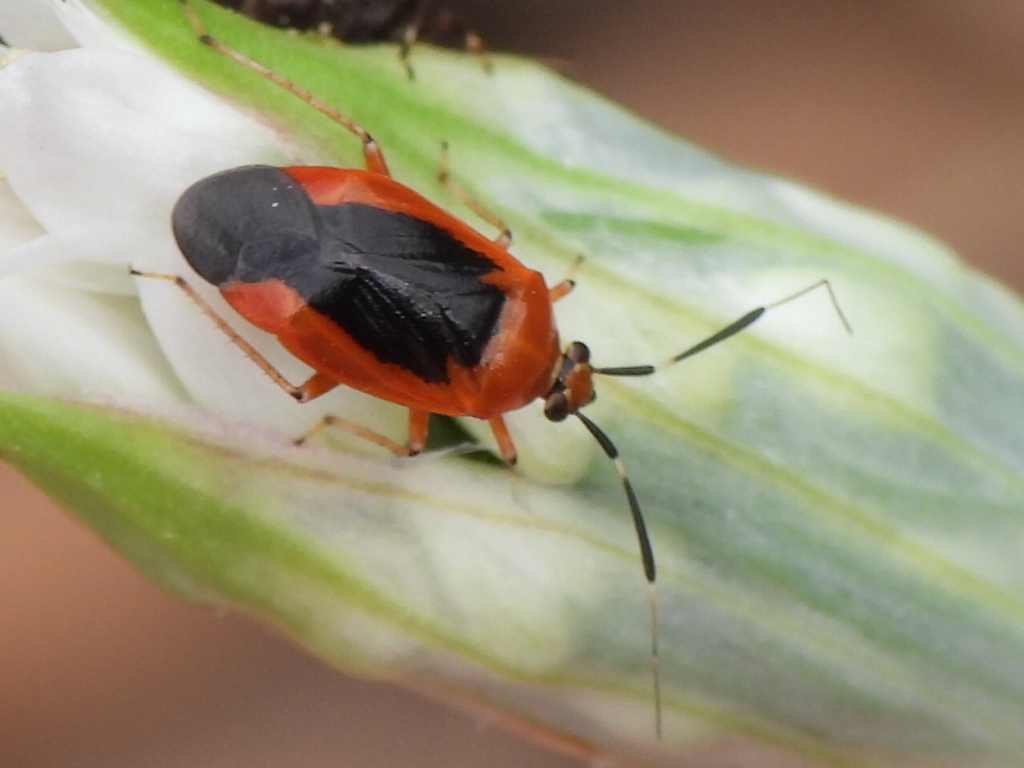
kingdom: Animalia
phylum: Arthropoda
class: Insecta
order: Hemiptera
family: Miridae
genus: Metriorrhynchomiris
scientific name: Metriorrhynchomiris dislocatus
